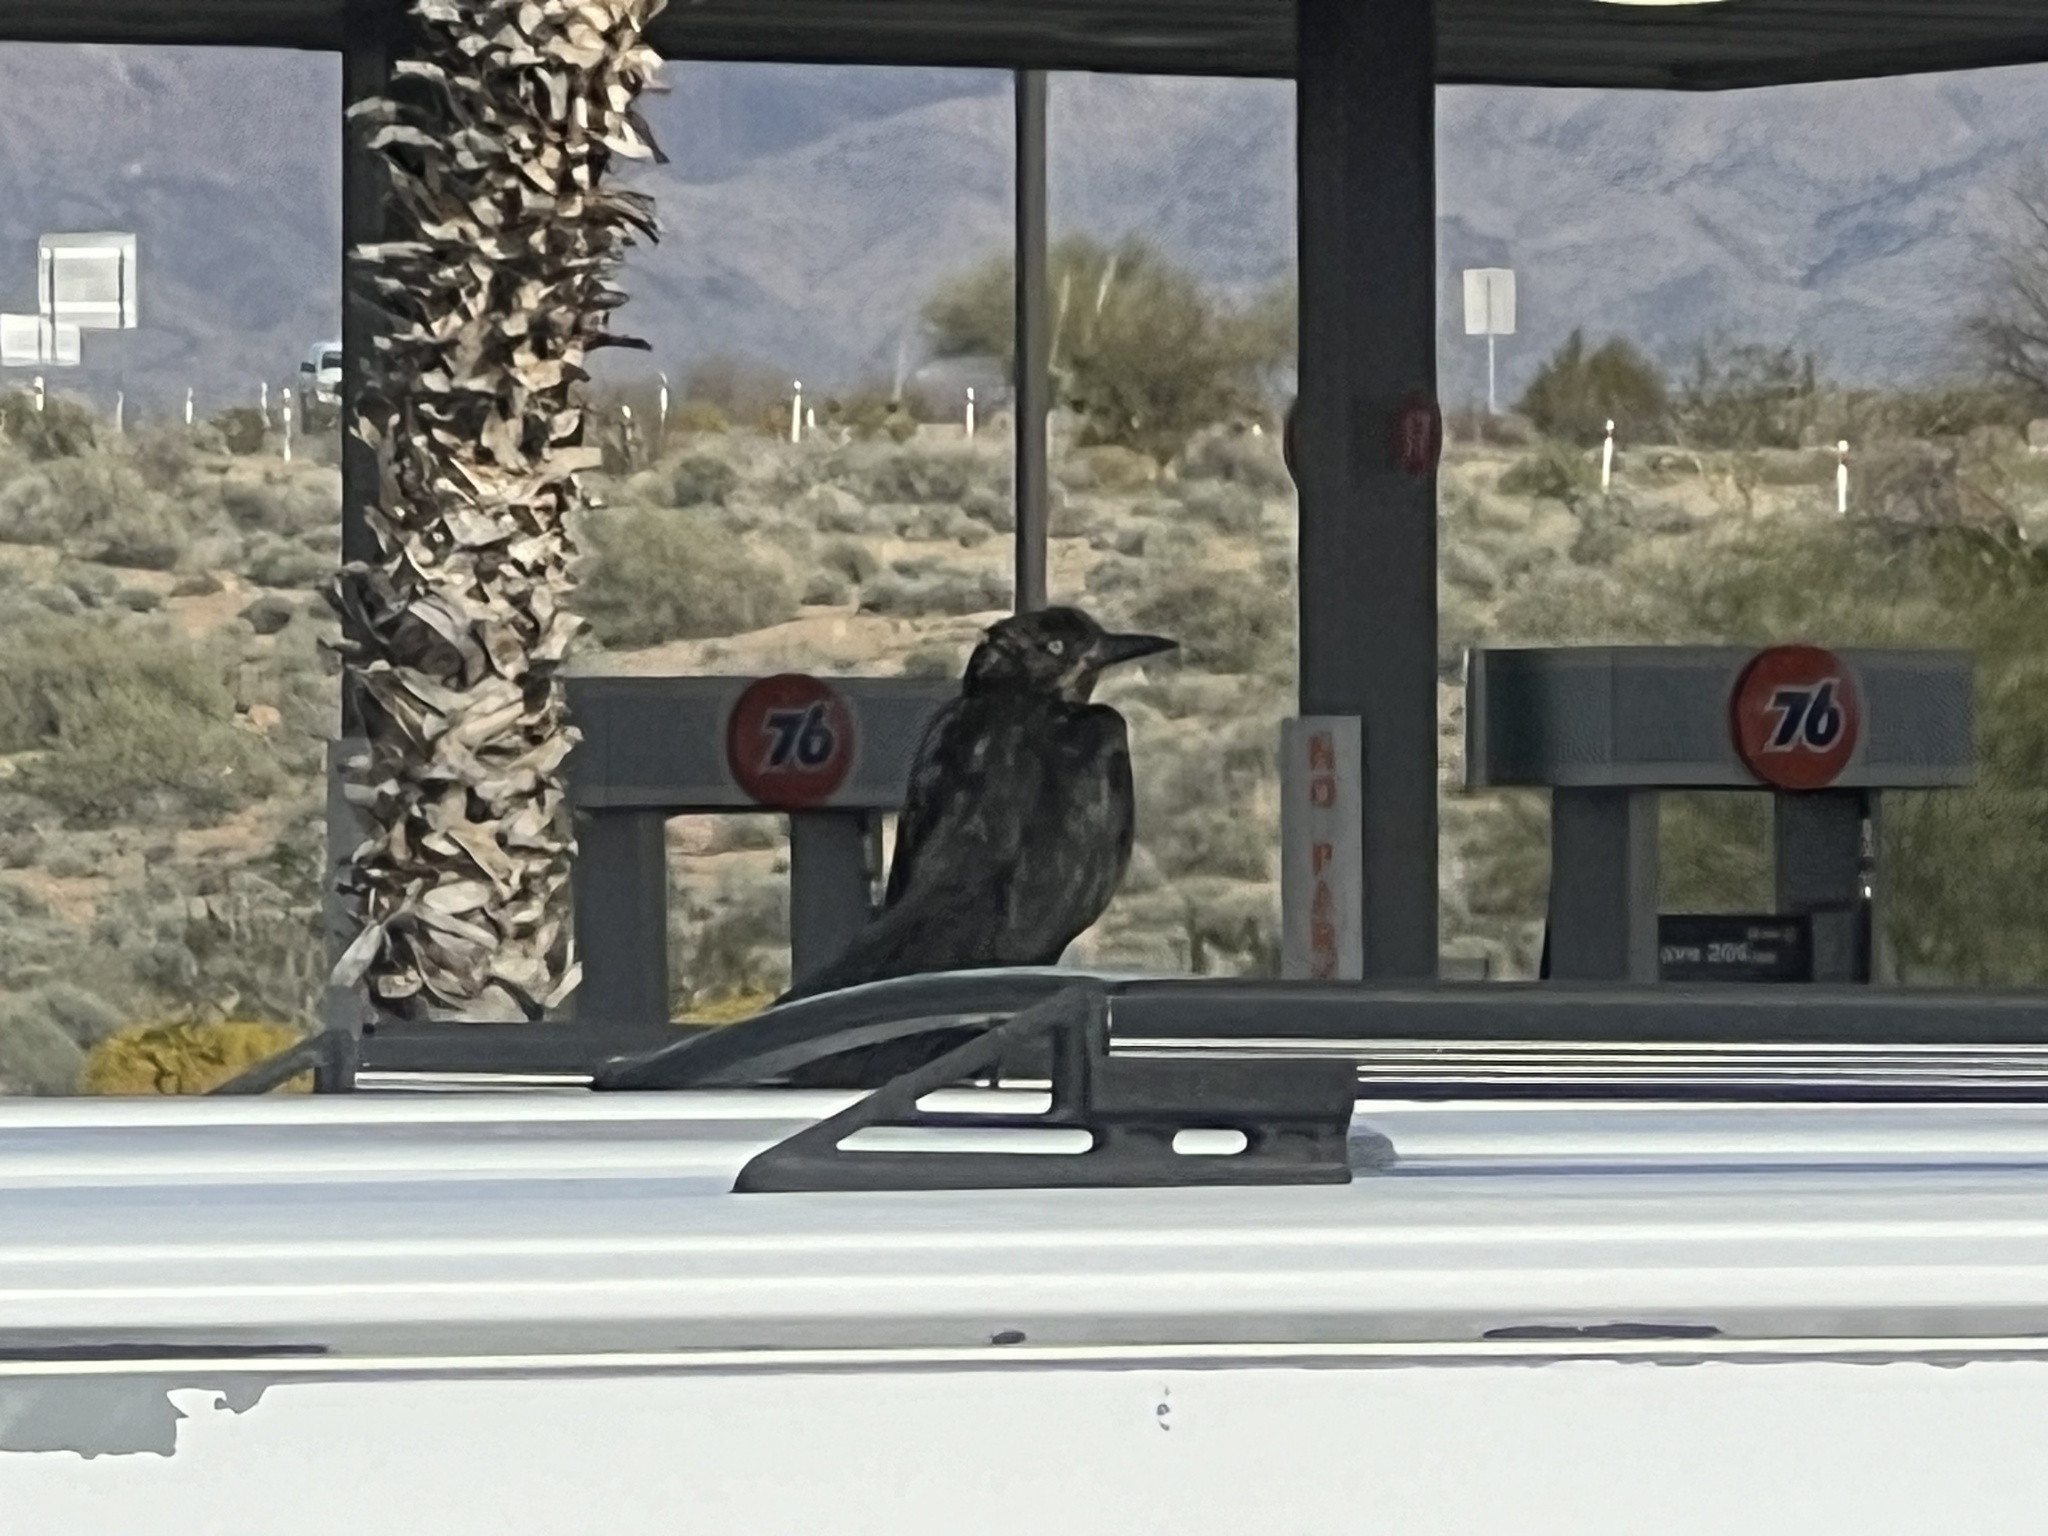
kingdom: Animalia
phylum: Chordata
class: Aves
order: Passeriformes
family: Icteridae
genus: Quiscalus
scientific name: Quiscalus mexicanus
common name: Great-tailed grackle
